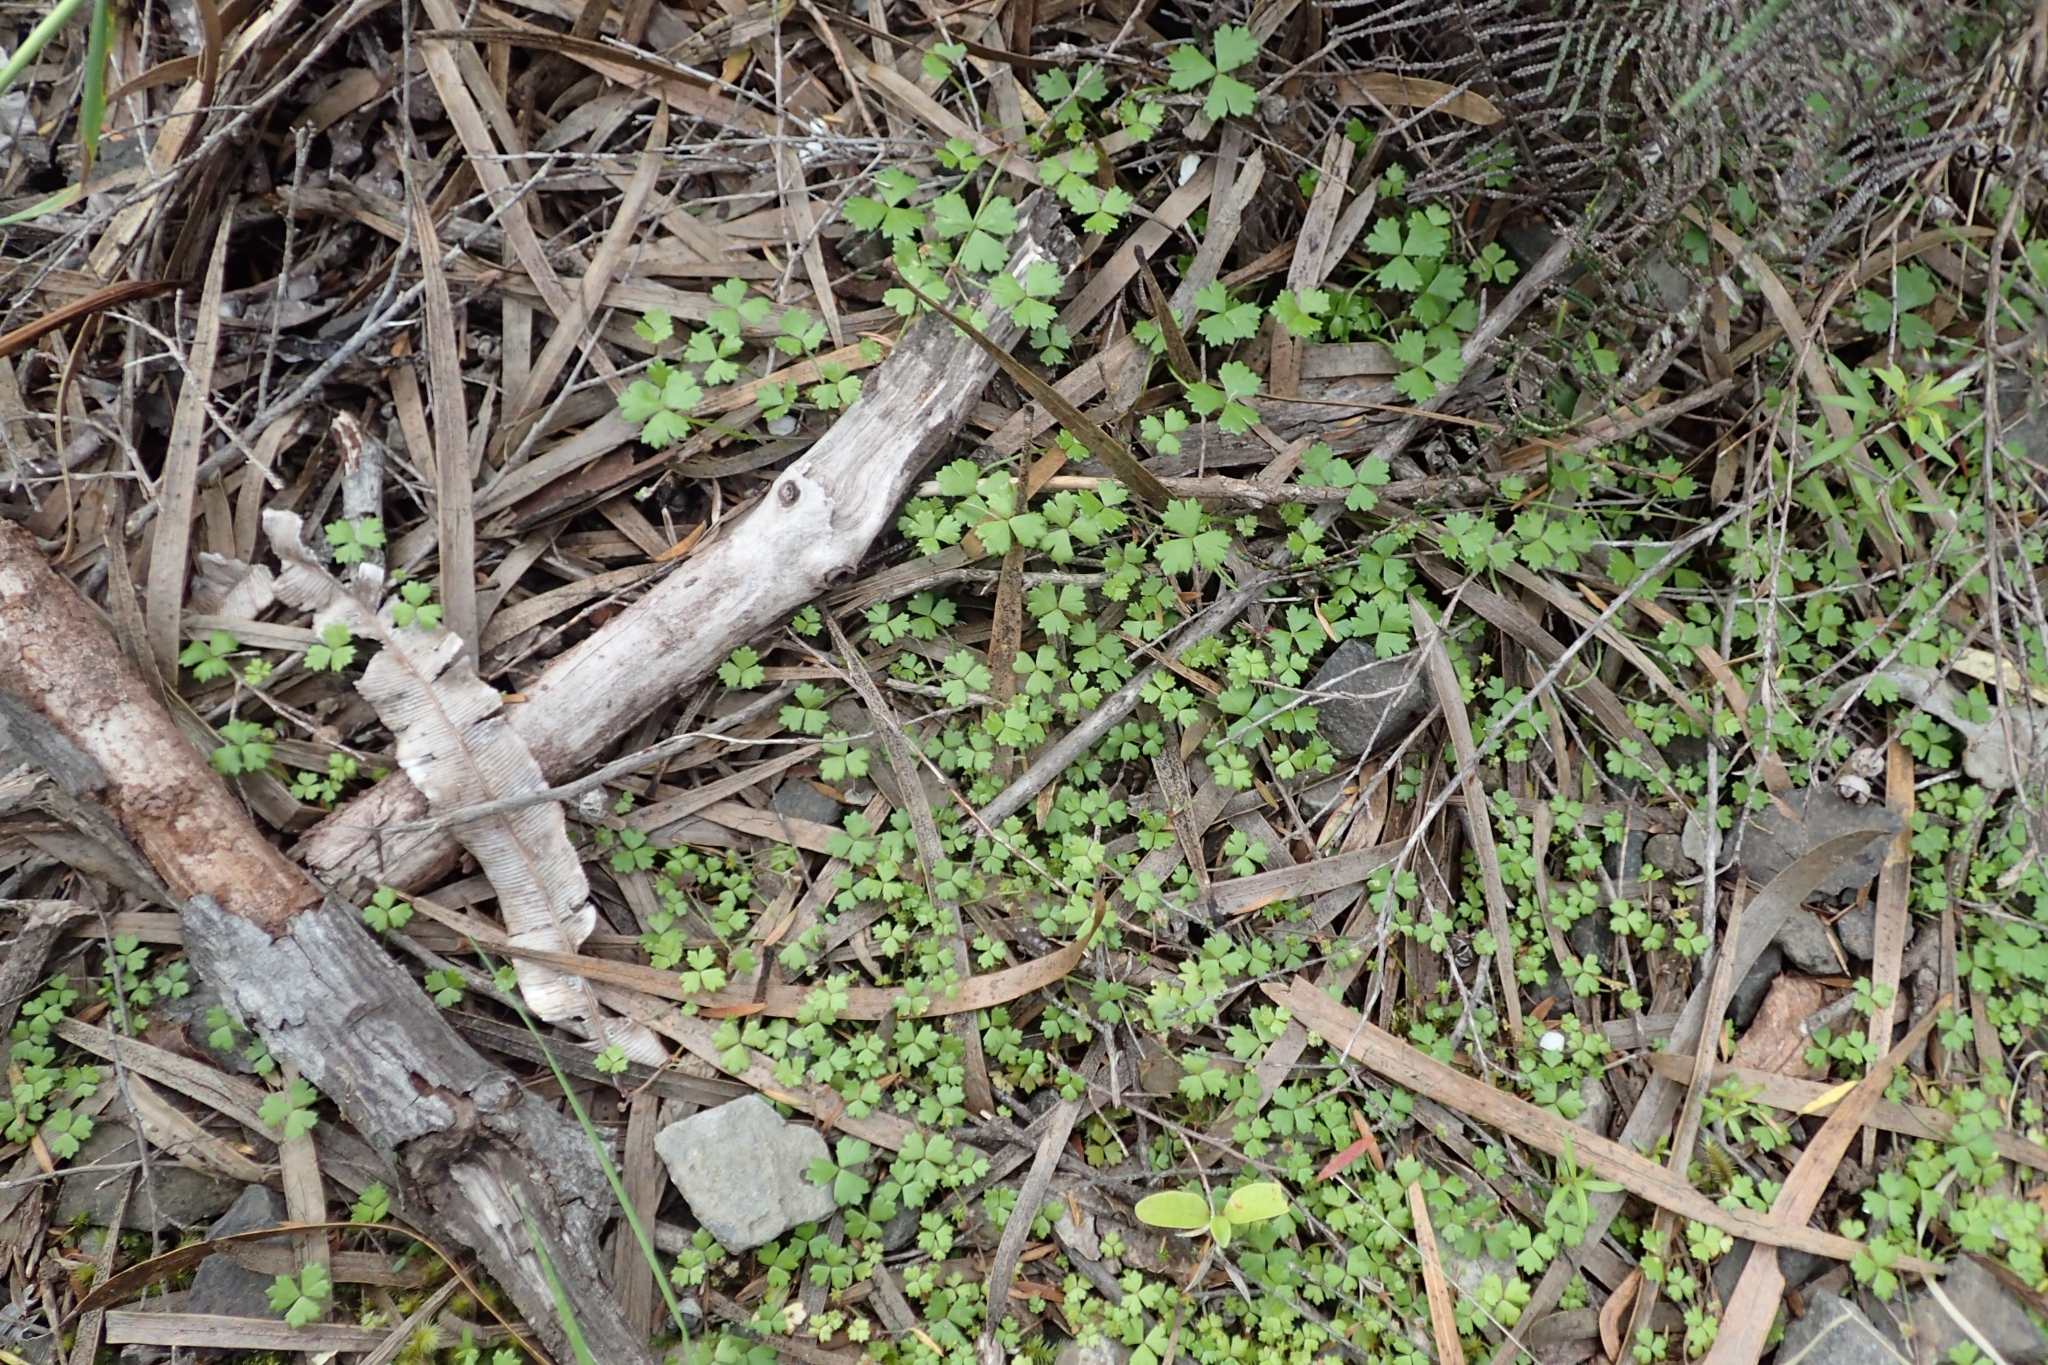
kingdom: Plantae
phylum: Tracheophyta
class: Magnoliopsida
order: Apiales
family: Araliaceae
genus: Hydrocotyle
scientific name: Hydrocotyle tripartita
